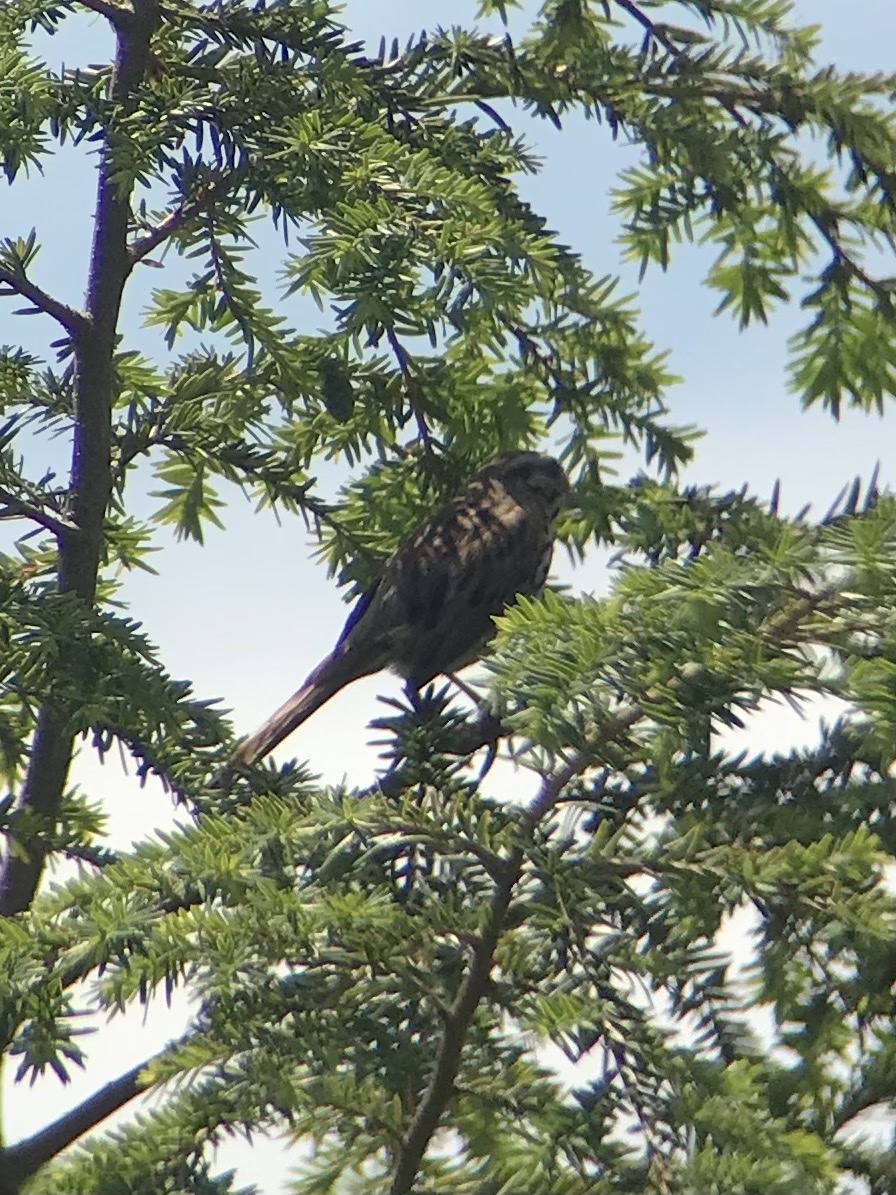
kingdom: Animalia
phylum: Chordata
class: Aves
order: Passeriformes
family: Passerellidae
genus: Melospiza
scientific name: Melospiza melodia
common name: Song sparrow
